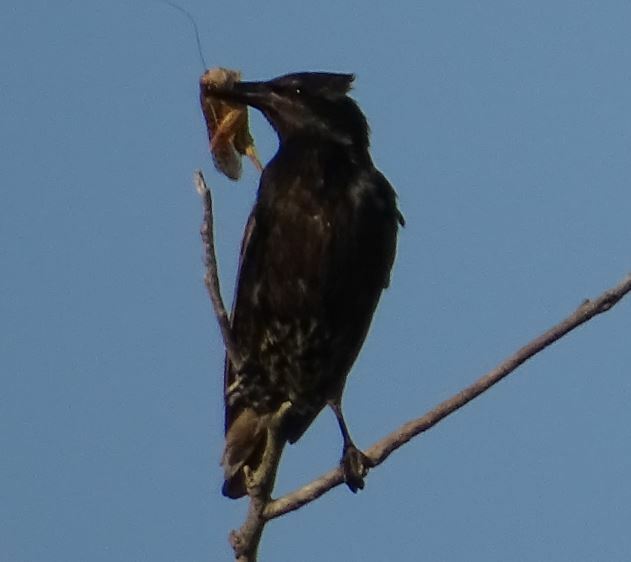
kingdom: Animalia
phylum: Chordata
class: Aves
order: Passeriformes
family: Sturnidae
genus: Sturnus
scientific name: Sturnus vulgaris
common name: Common starling
